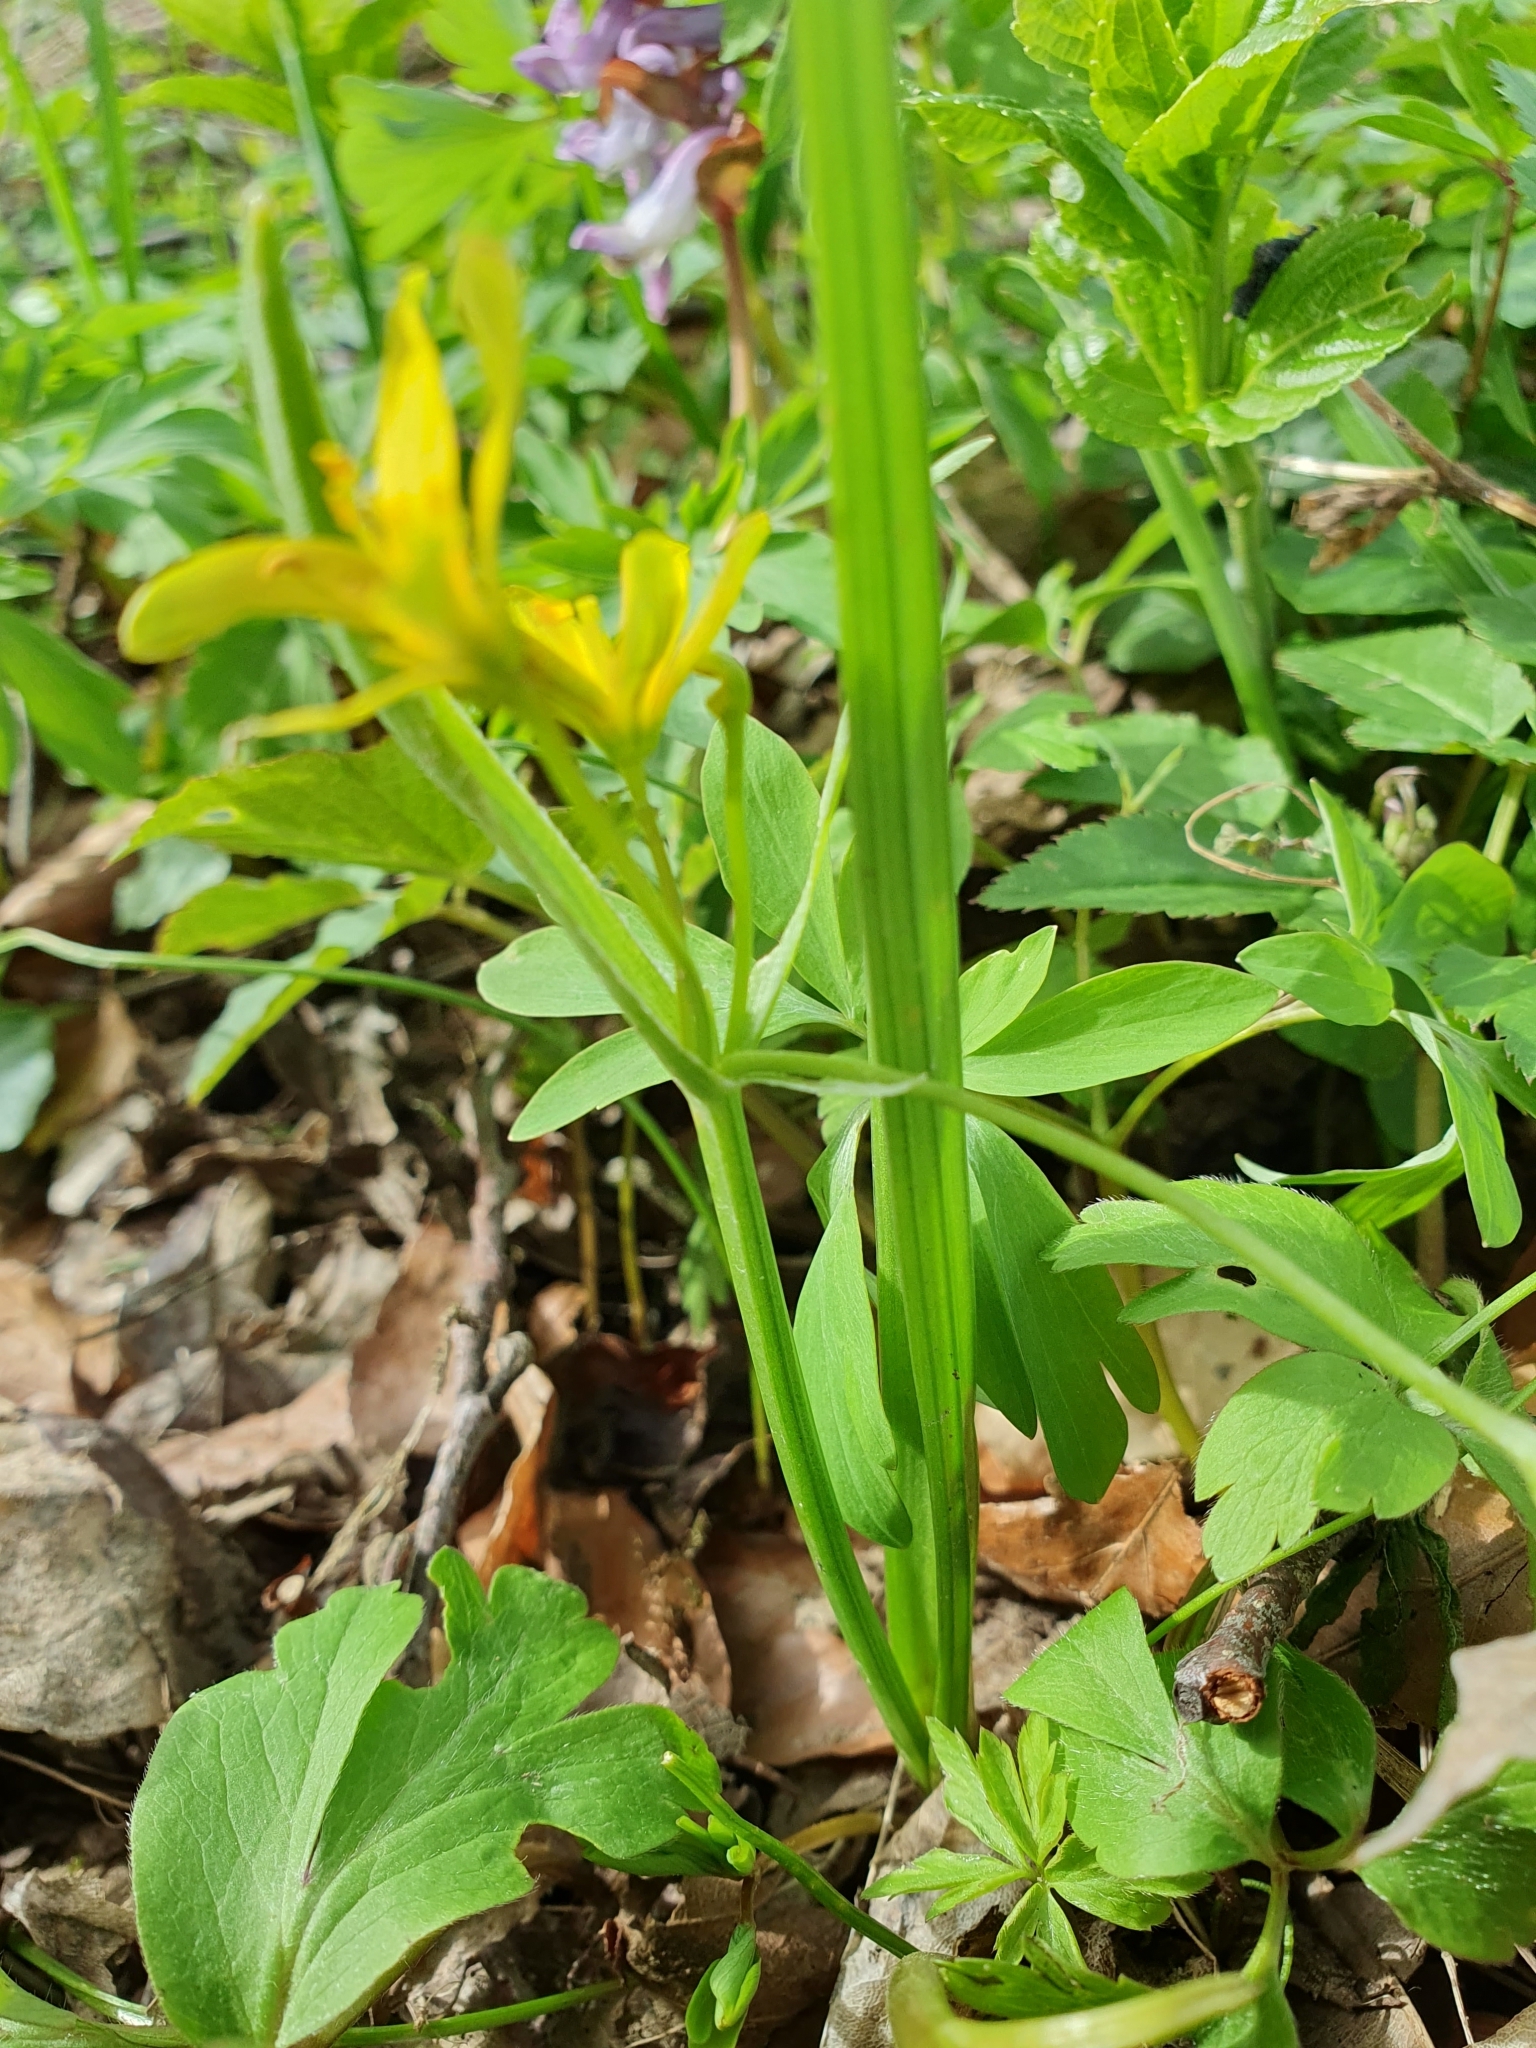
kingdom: Plantae
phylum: Tracheophyta
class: Liliopsida
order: Liliales
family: Liliaceae
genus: Gagea
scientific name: Gagea lutea
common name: Yellow star-of-bethlehem
